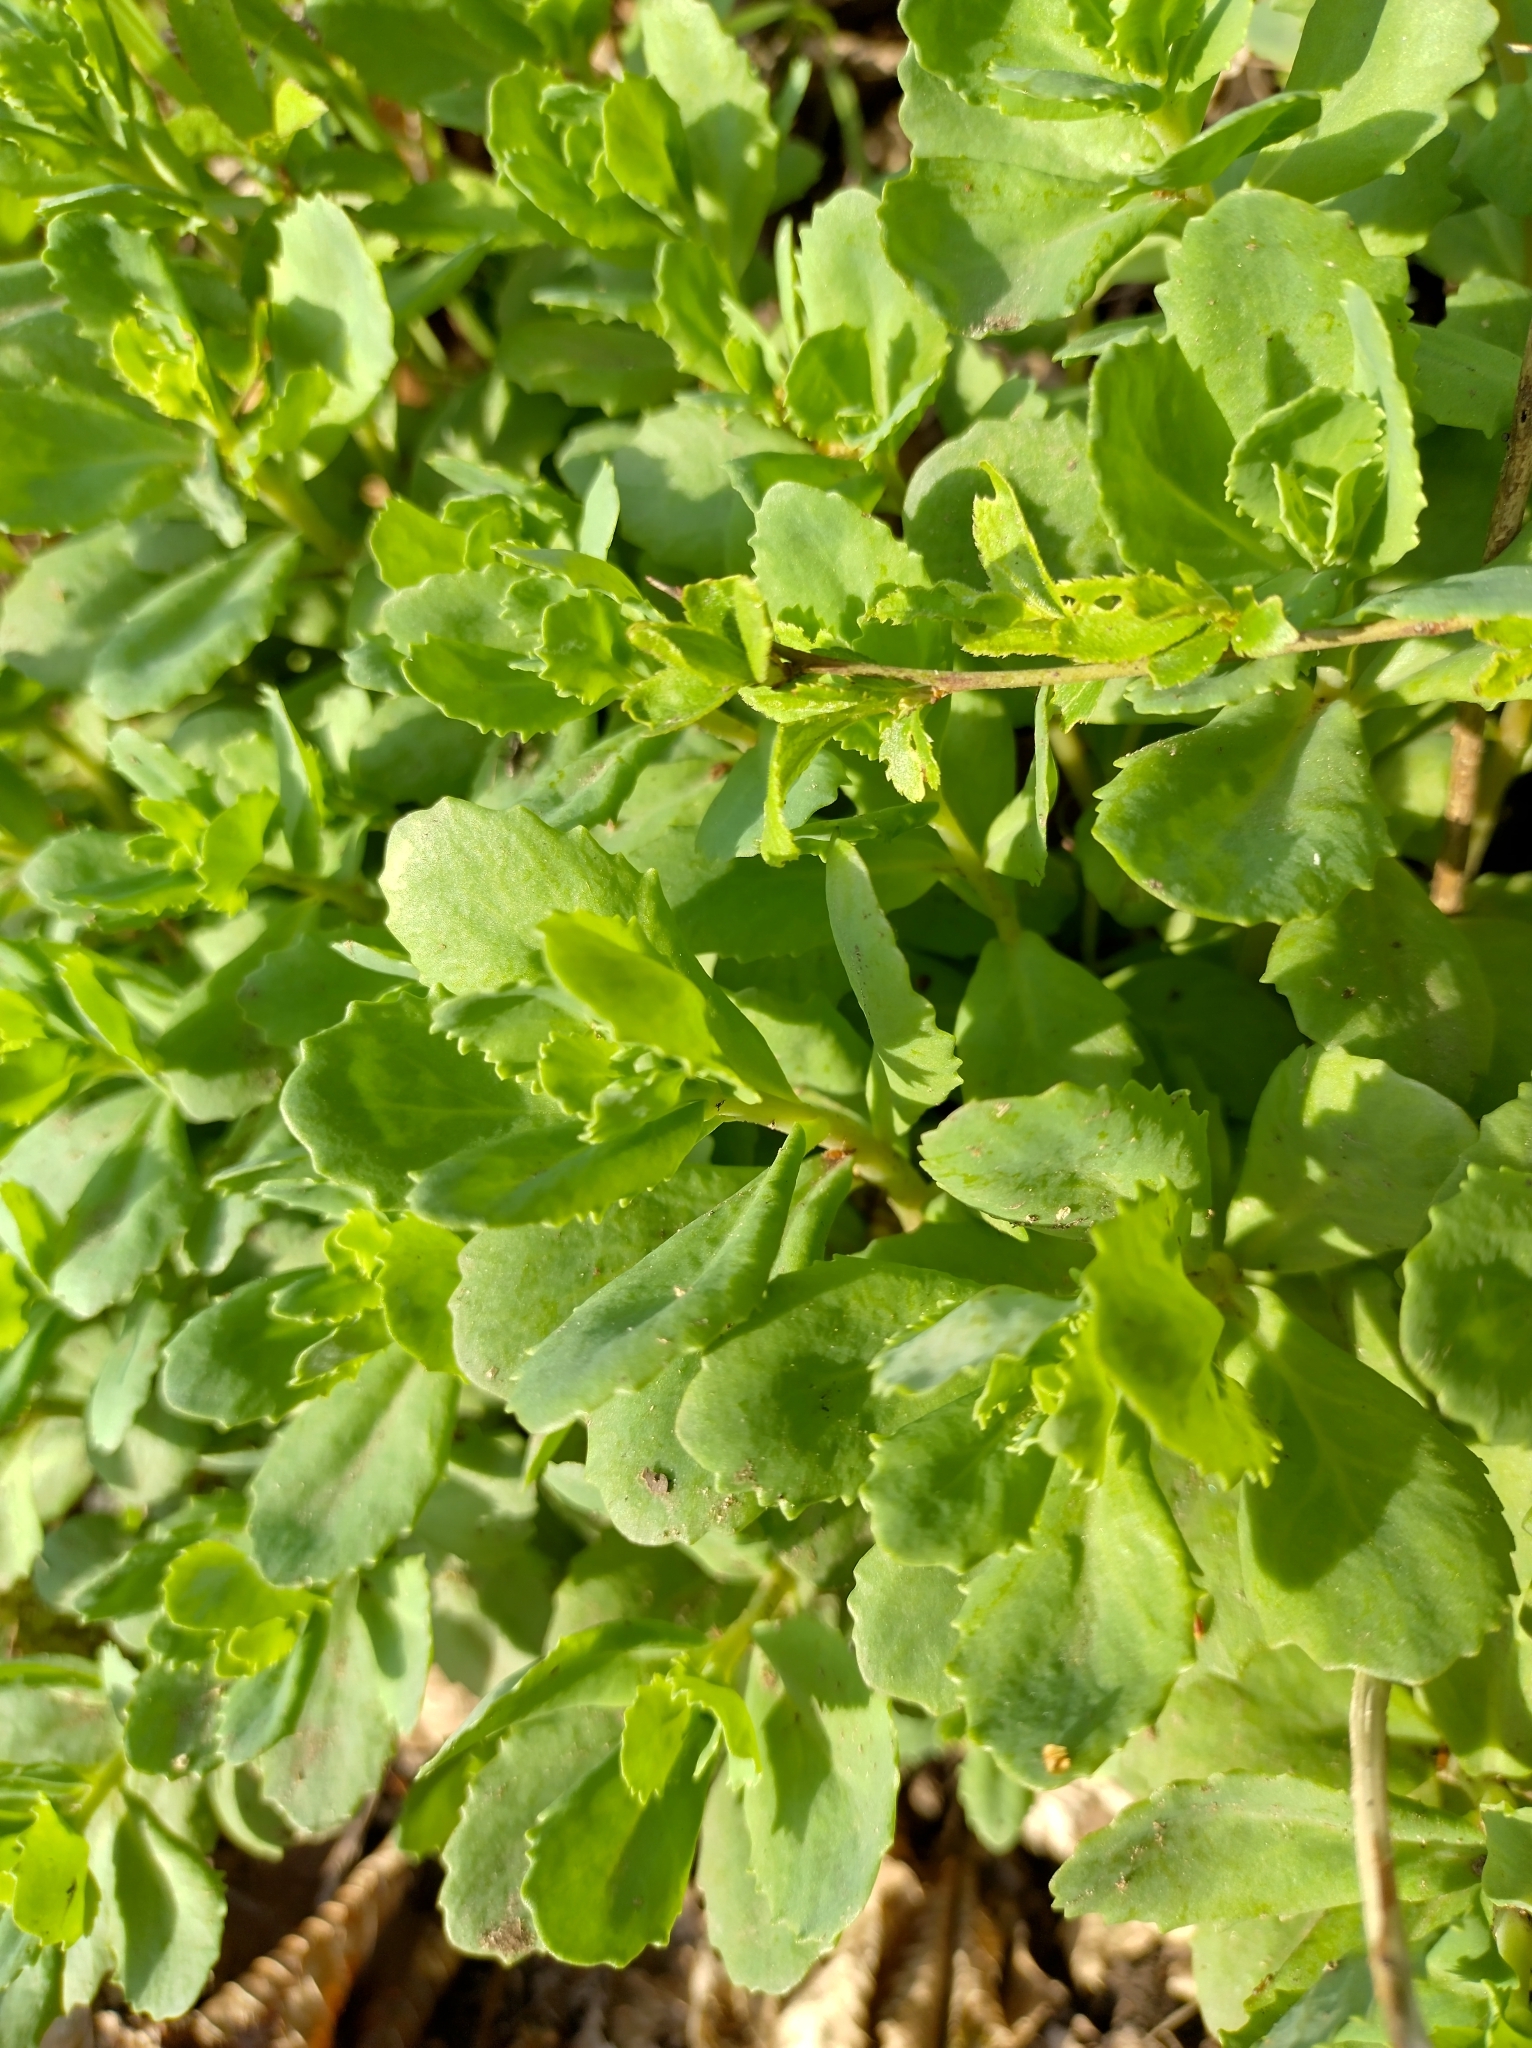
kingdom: Plantae
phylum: Tracheophyta
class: Magnoliopsida
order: Saxifragales
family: Crassulaceae
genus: Hylotelephium
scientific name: Hylotelephium telephium
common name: Live-forever
